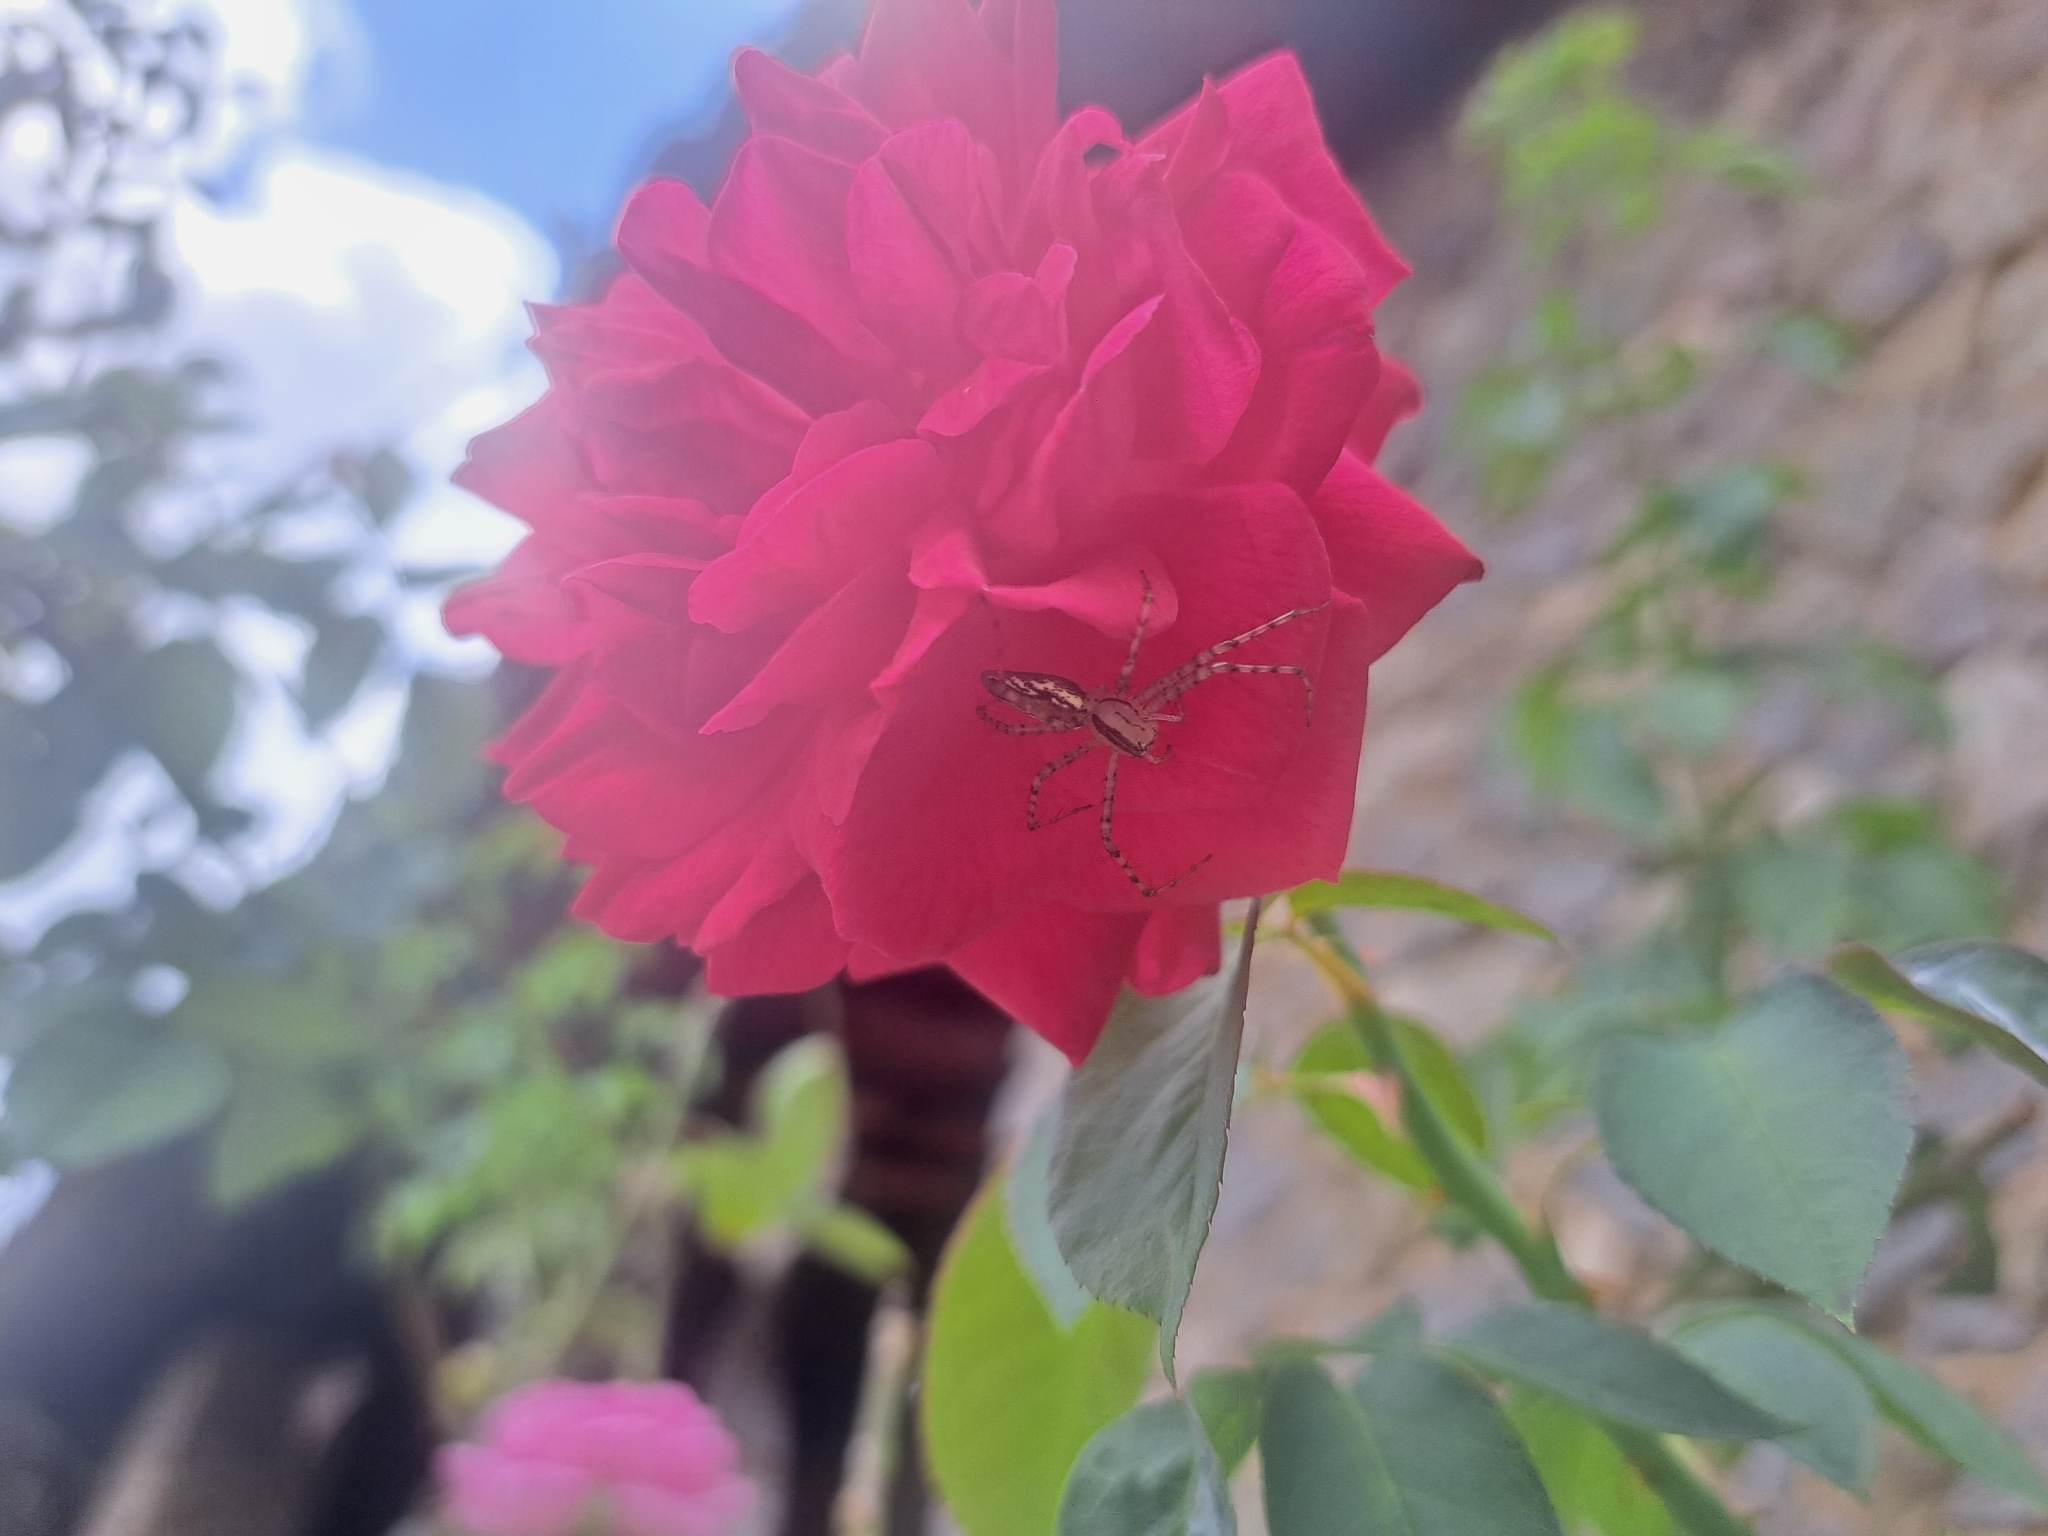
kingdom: Animalia
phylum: Arthropoda
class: Arachnida
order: Araneae
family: Oxyopidae
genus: Peucetia
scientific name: Peucetia rubrolineata
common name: Lynx spiders
